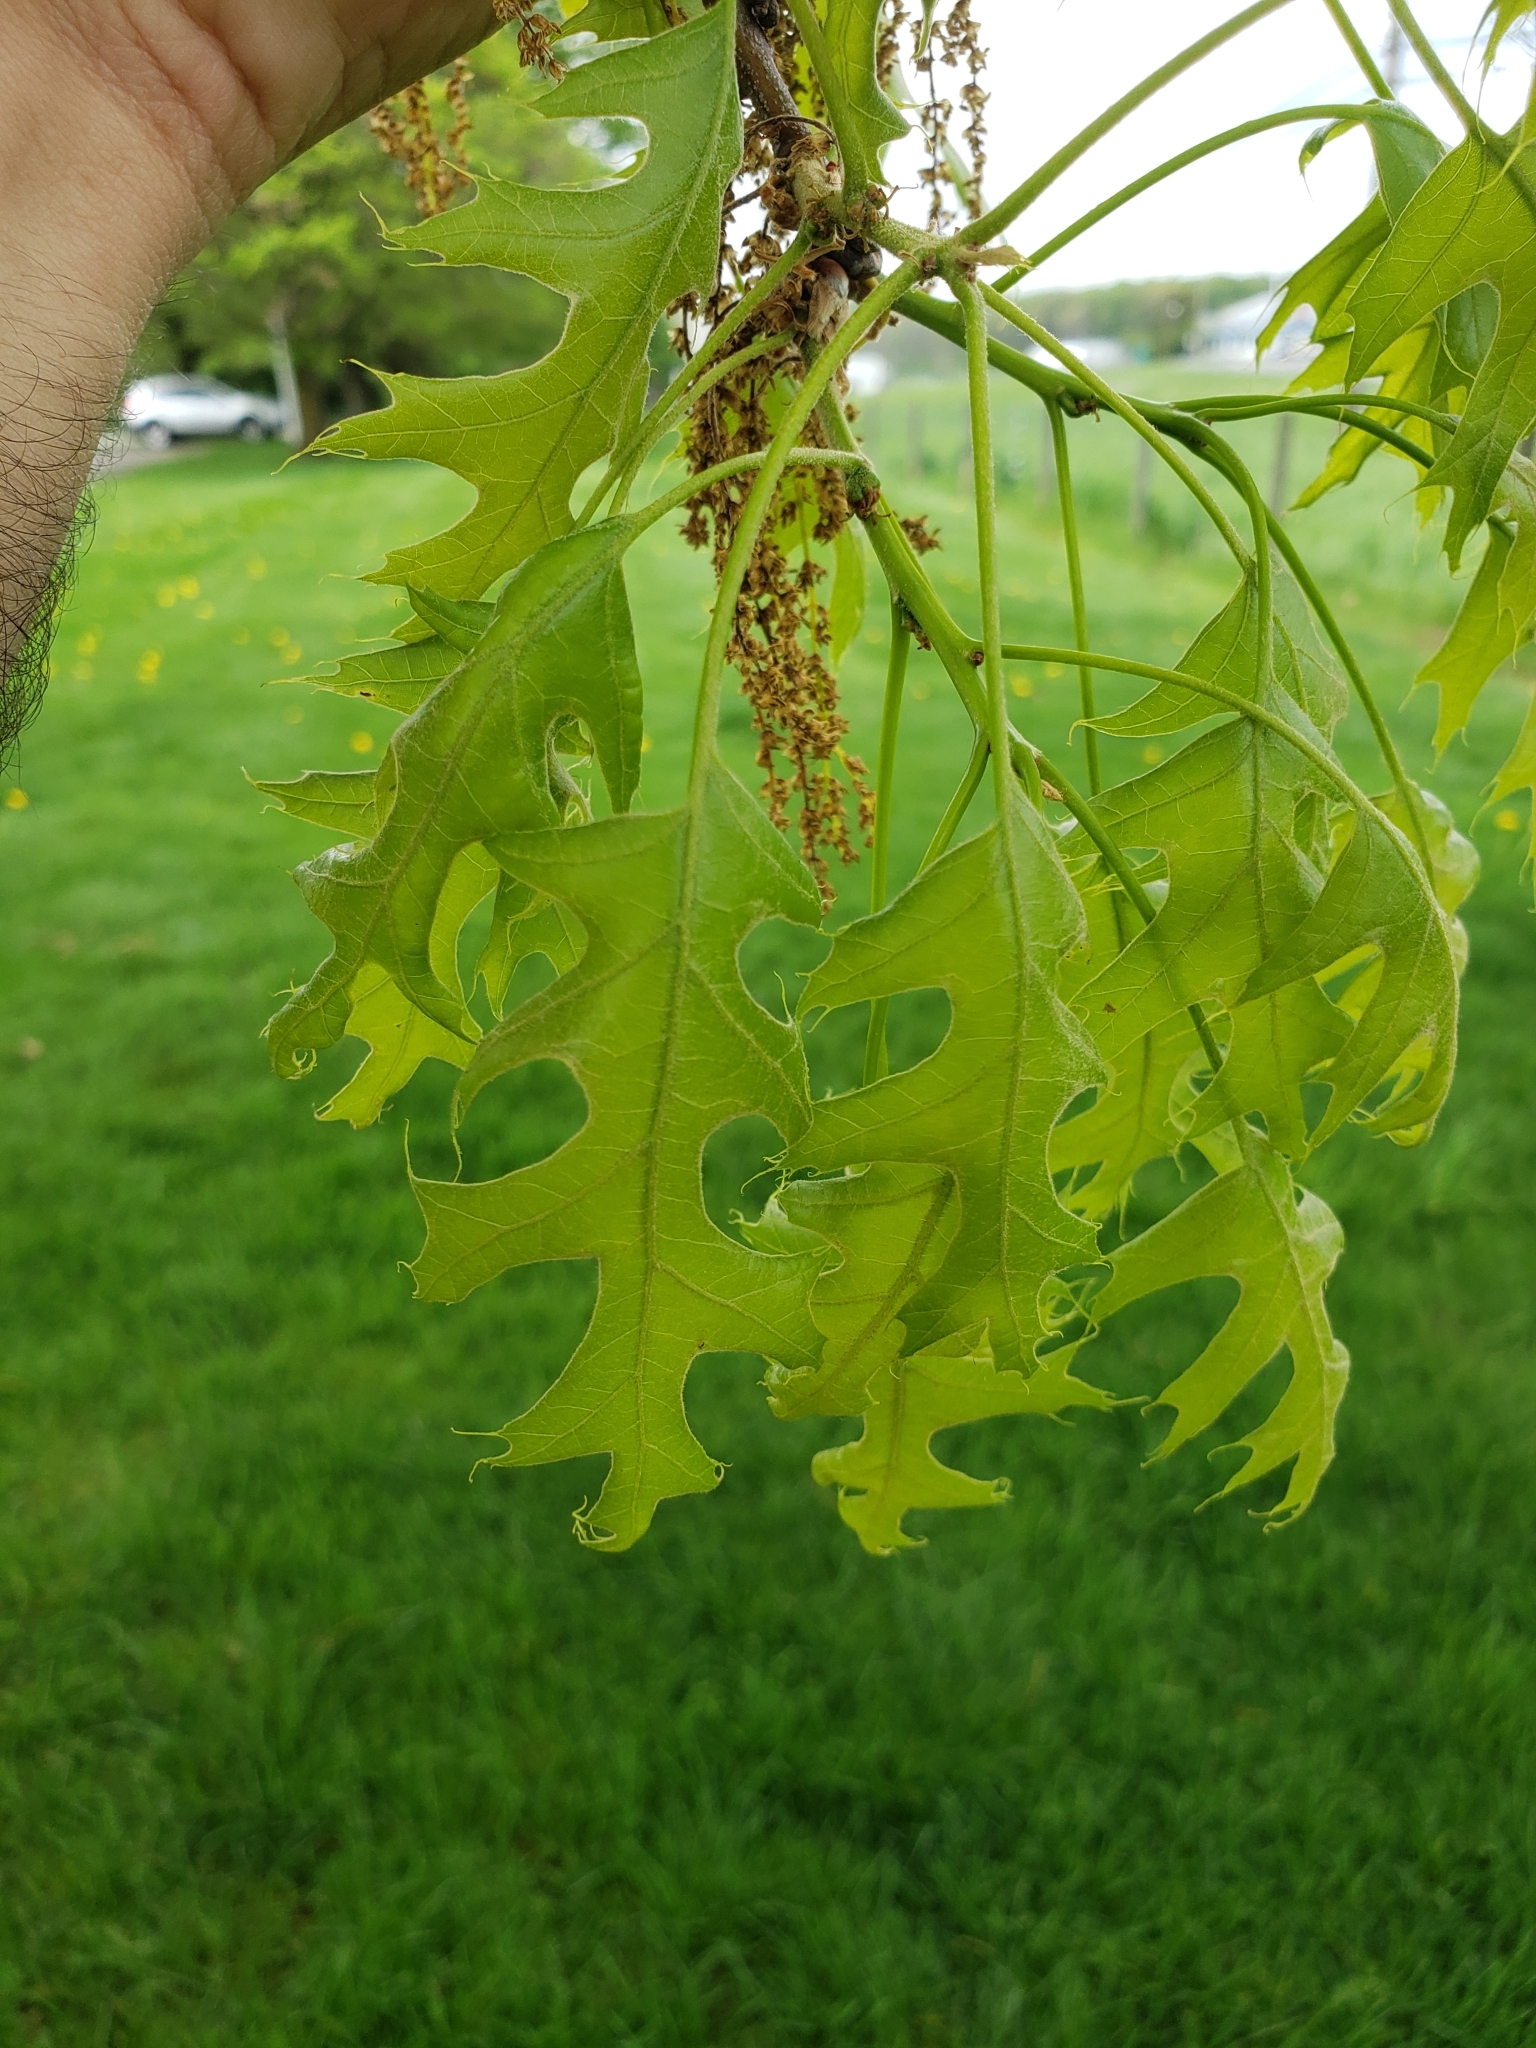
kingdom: Animalia
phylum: Arthropoda
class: Insecta
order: Hymenoptera
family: Cynipidae
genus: Callirhytis
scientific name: Callirhytis
